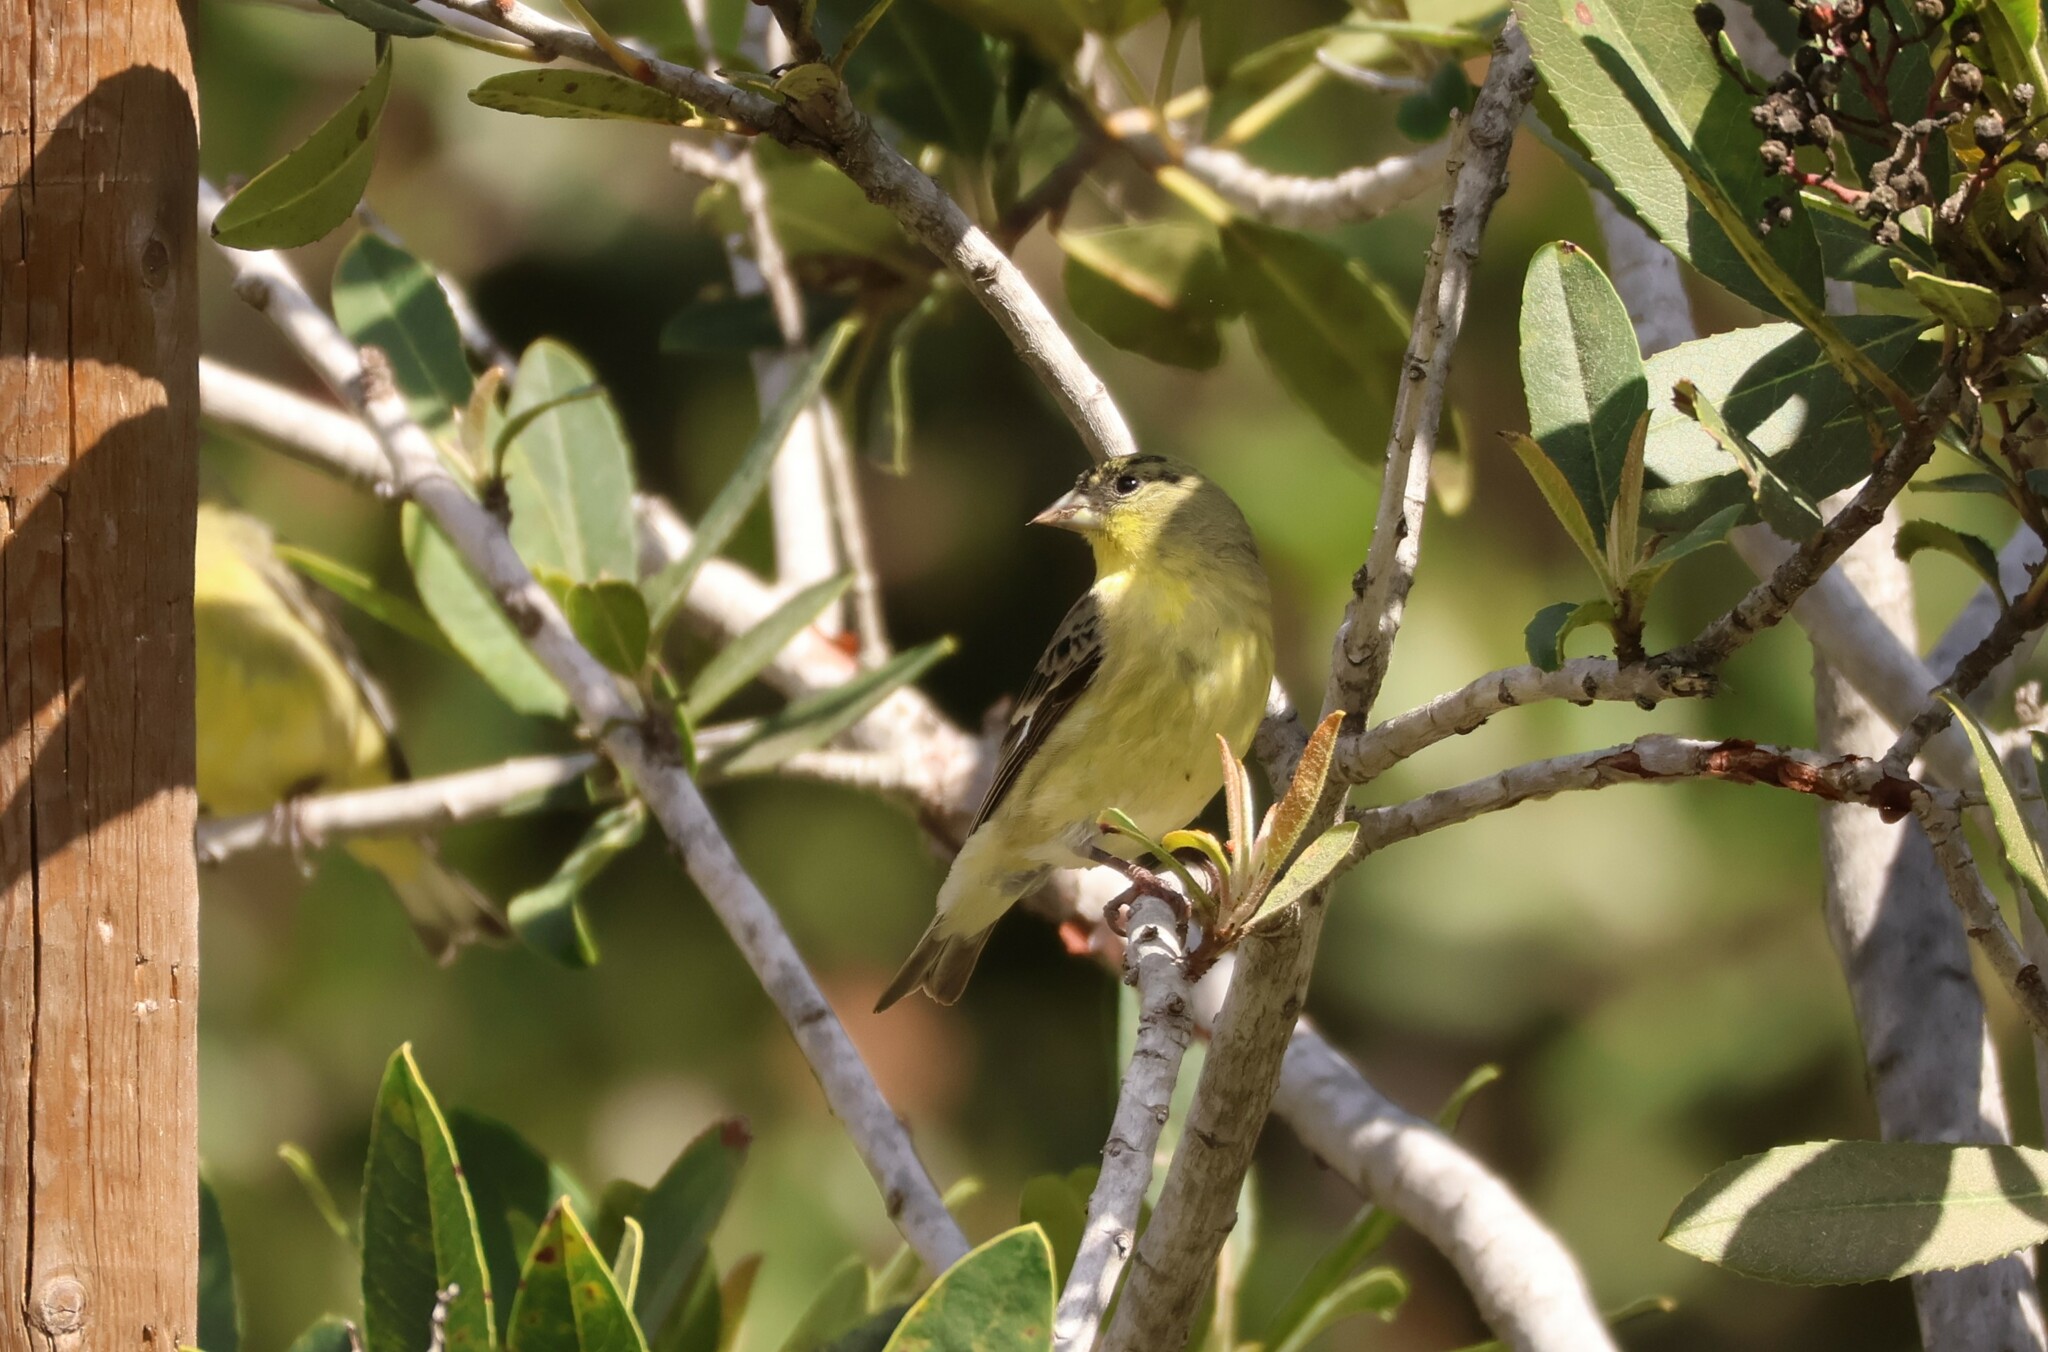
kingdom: Animalia
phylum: Chordata
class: Aves
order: Passeriformes
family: Fringillidae
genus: Spinus
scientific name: Spinus psaltria
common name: Lesser goldfinch
